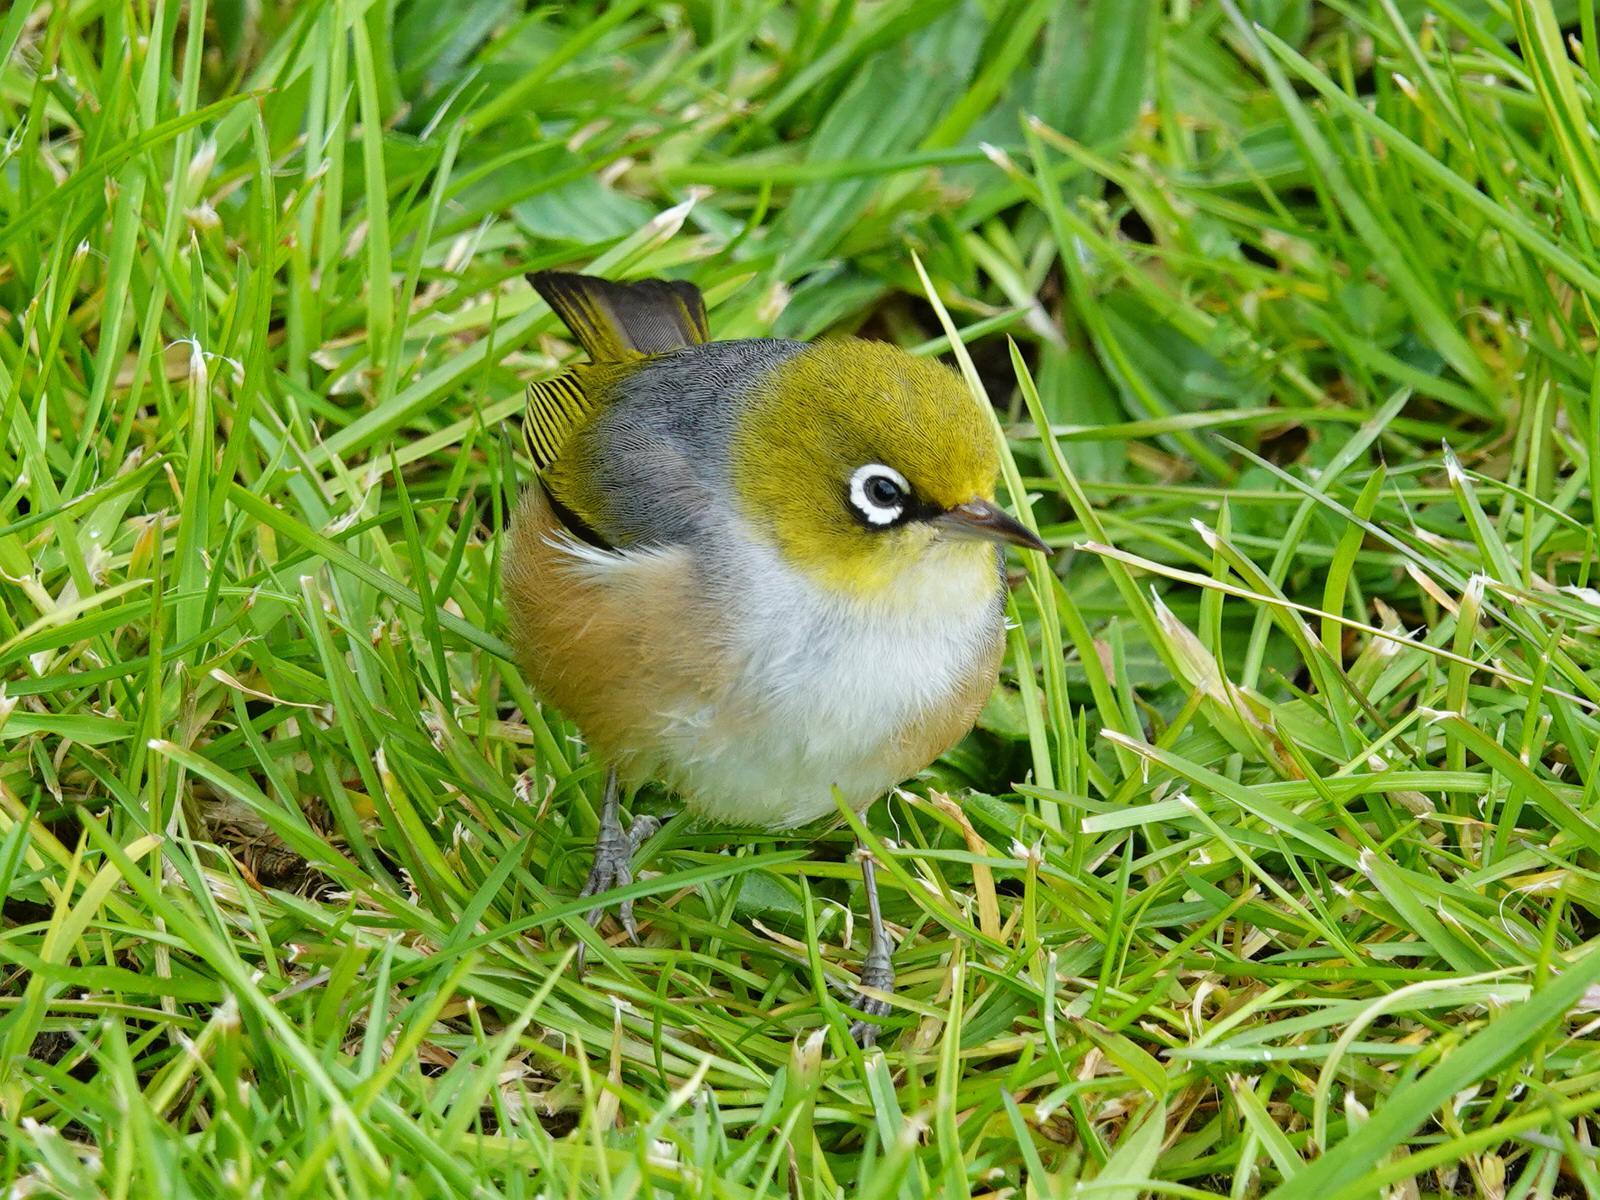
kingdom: Animalia
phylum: Chordata
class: Aves
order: Passeriformes
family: Zosteropidae
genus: Zosterops
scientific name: Zosterops lateralis
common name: Silvereye
